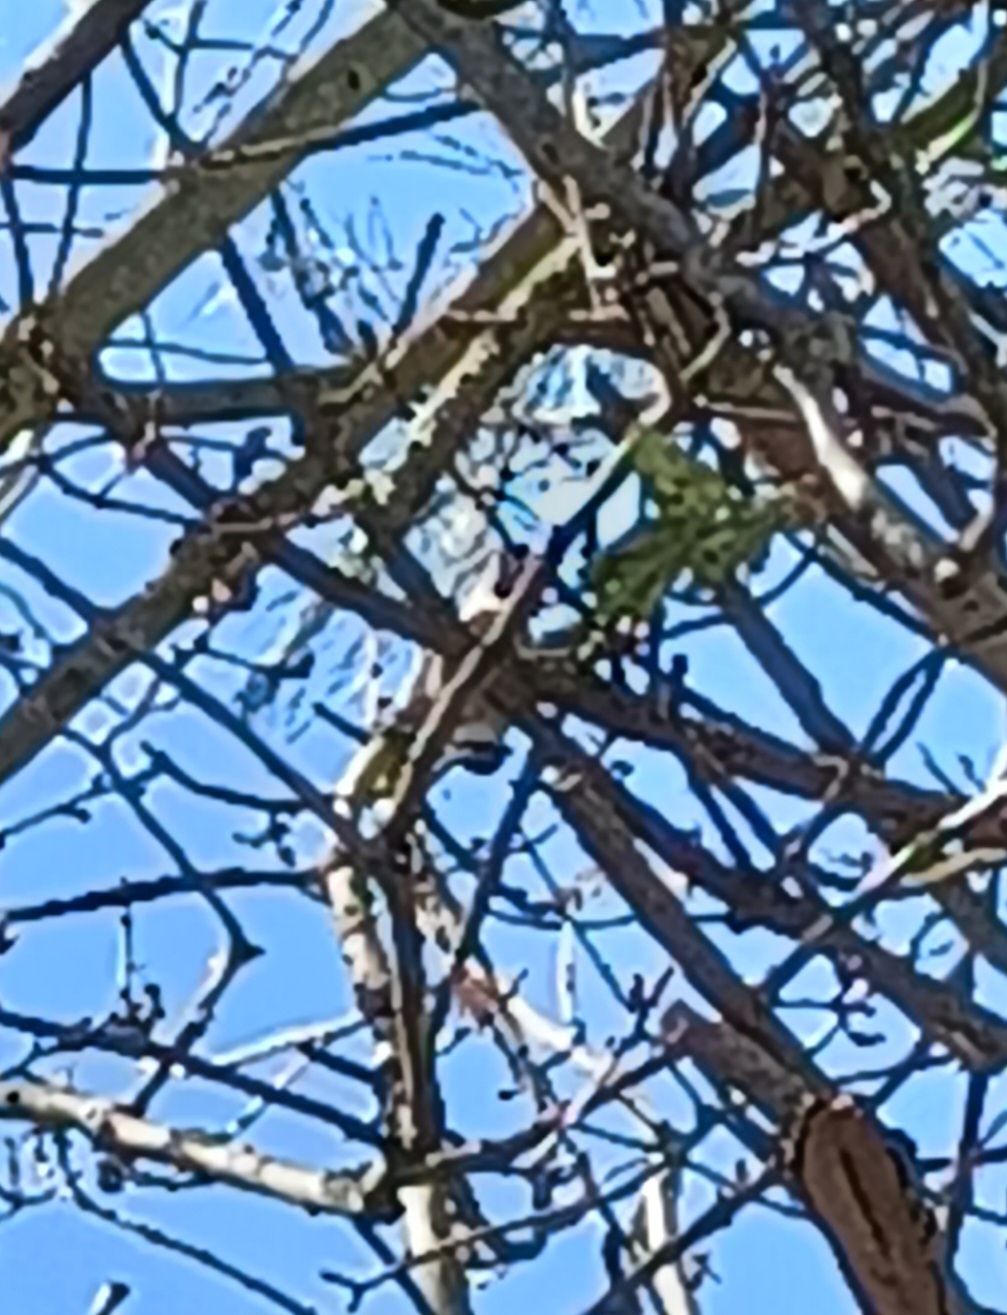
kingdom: Animalia
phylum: Chordata
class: Aves
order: Passeriformes
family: Sittidae
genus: Sitta
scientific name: Sitta europaea
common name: Eurasian nuthatch
